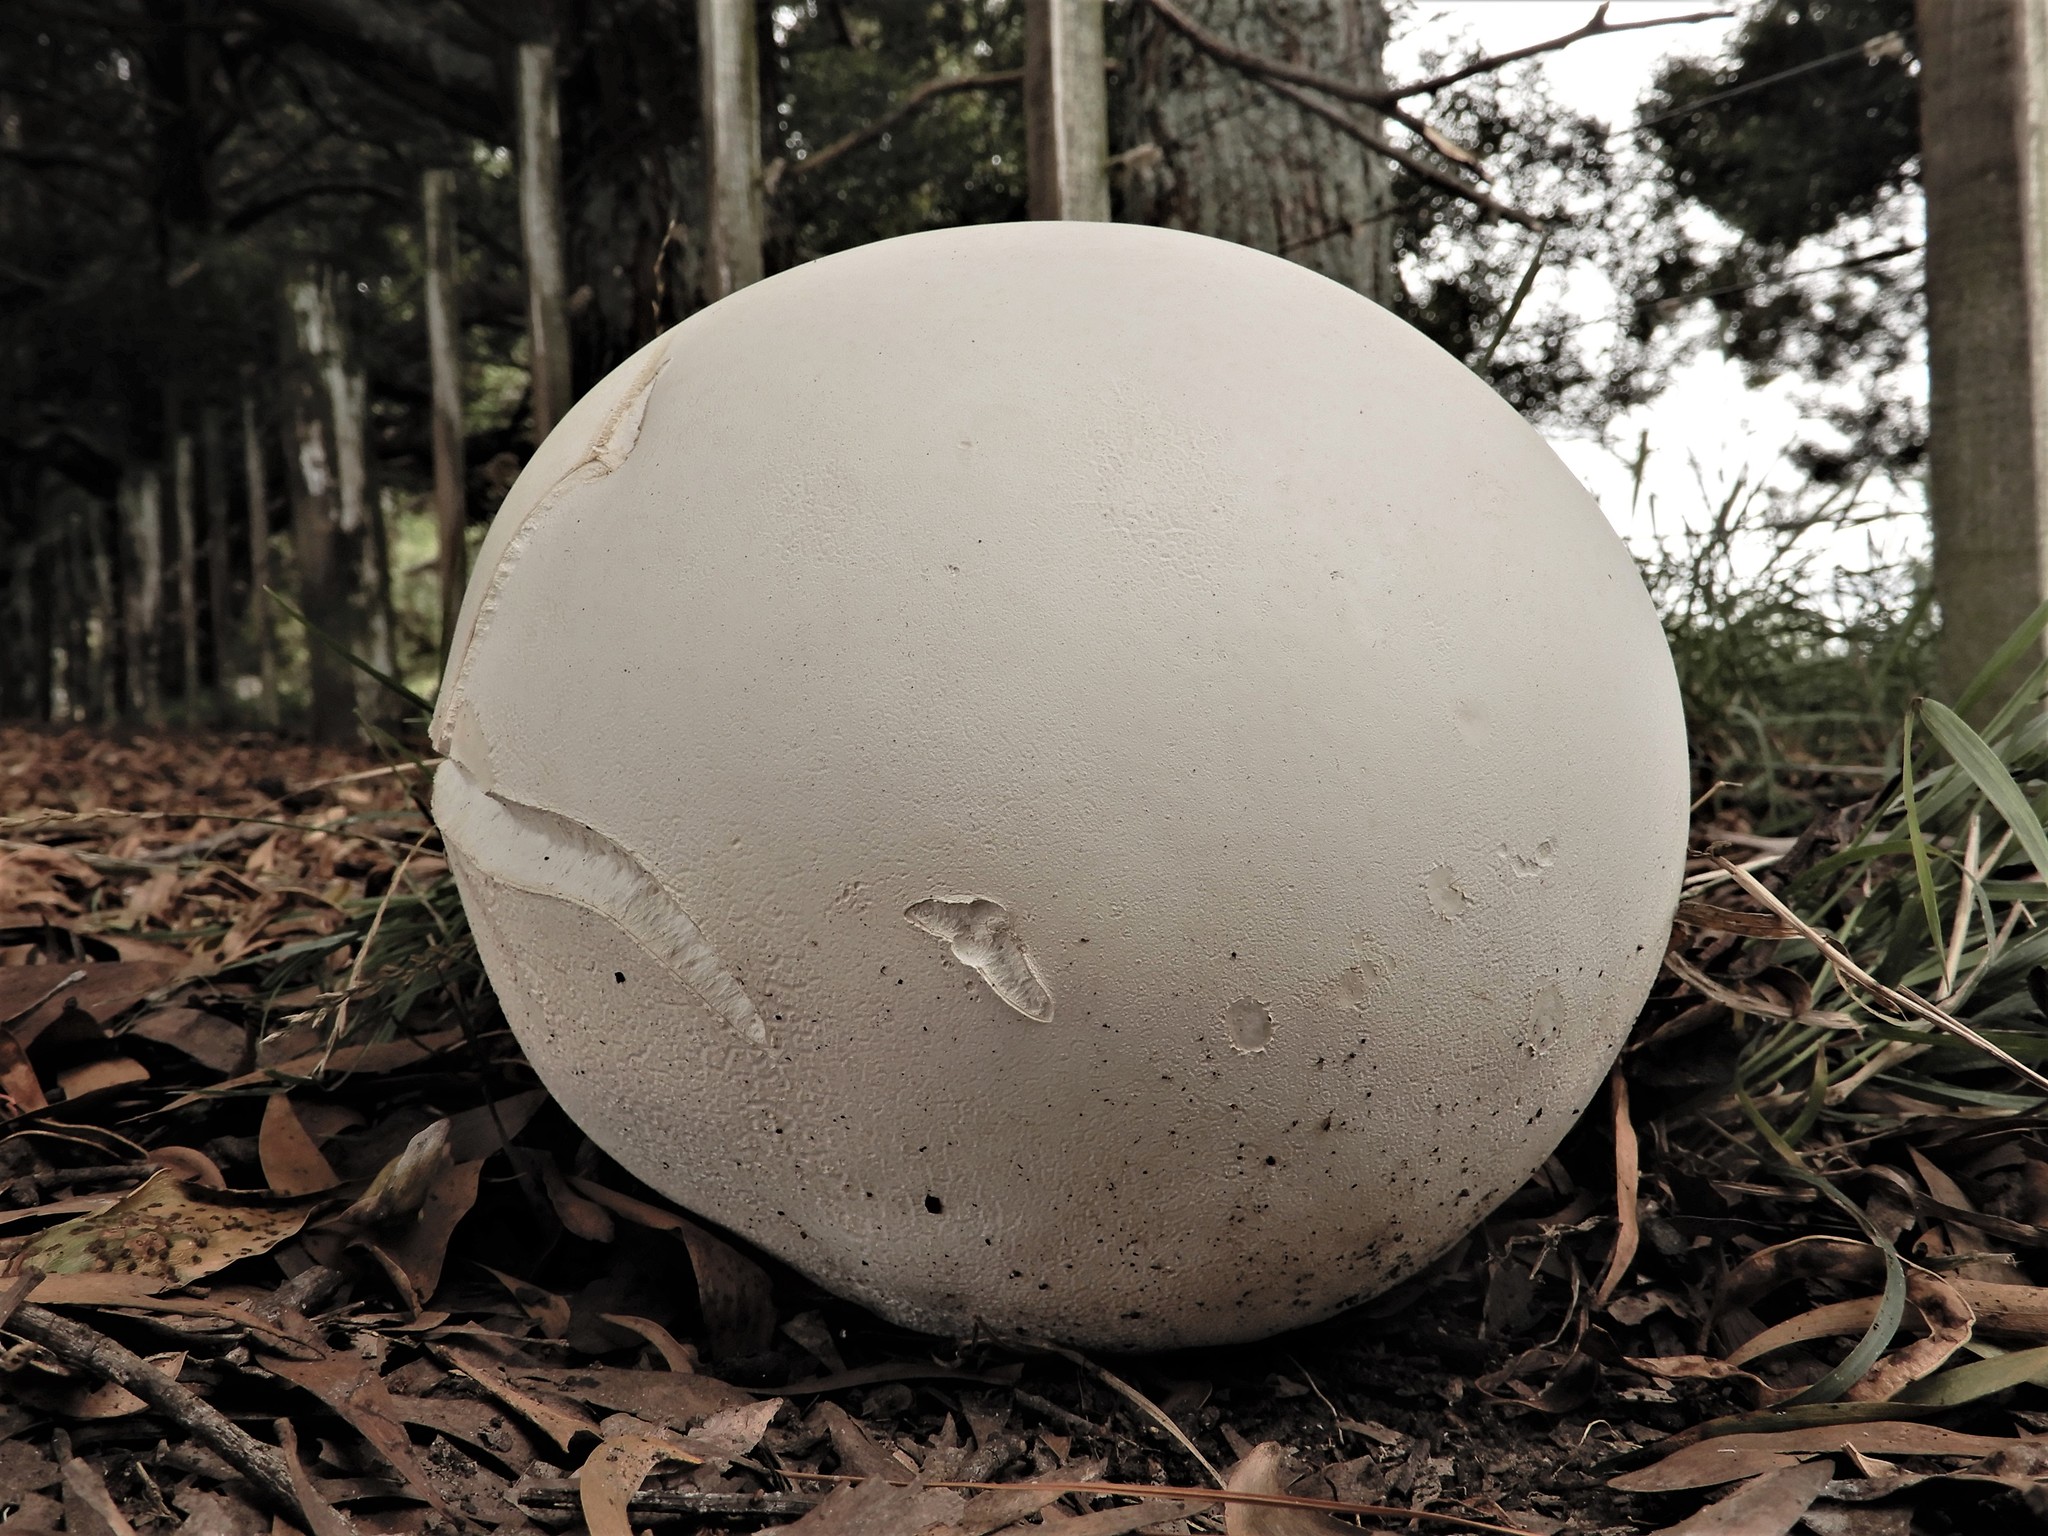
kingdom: Fungi
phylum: Basidiomycota
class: Agaricomycetes
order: Agaricales
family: Lycoperdaceae
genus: Calvatia
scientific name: Calvatia gigantea
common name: Giant puffball
